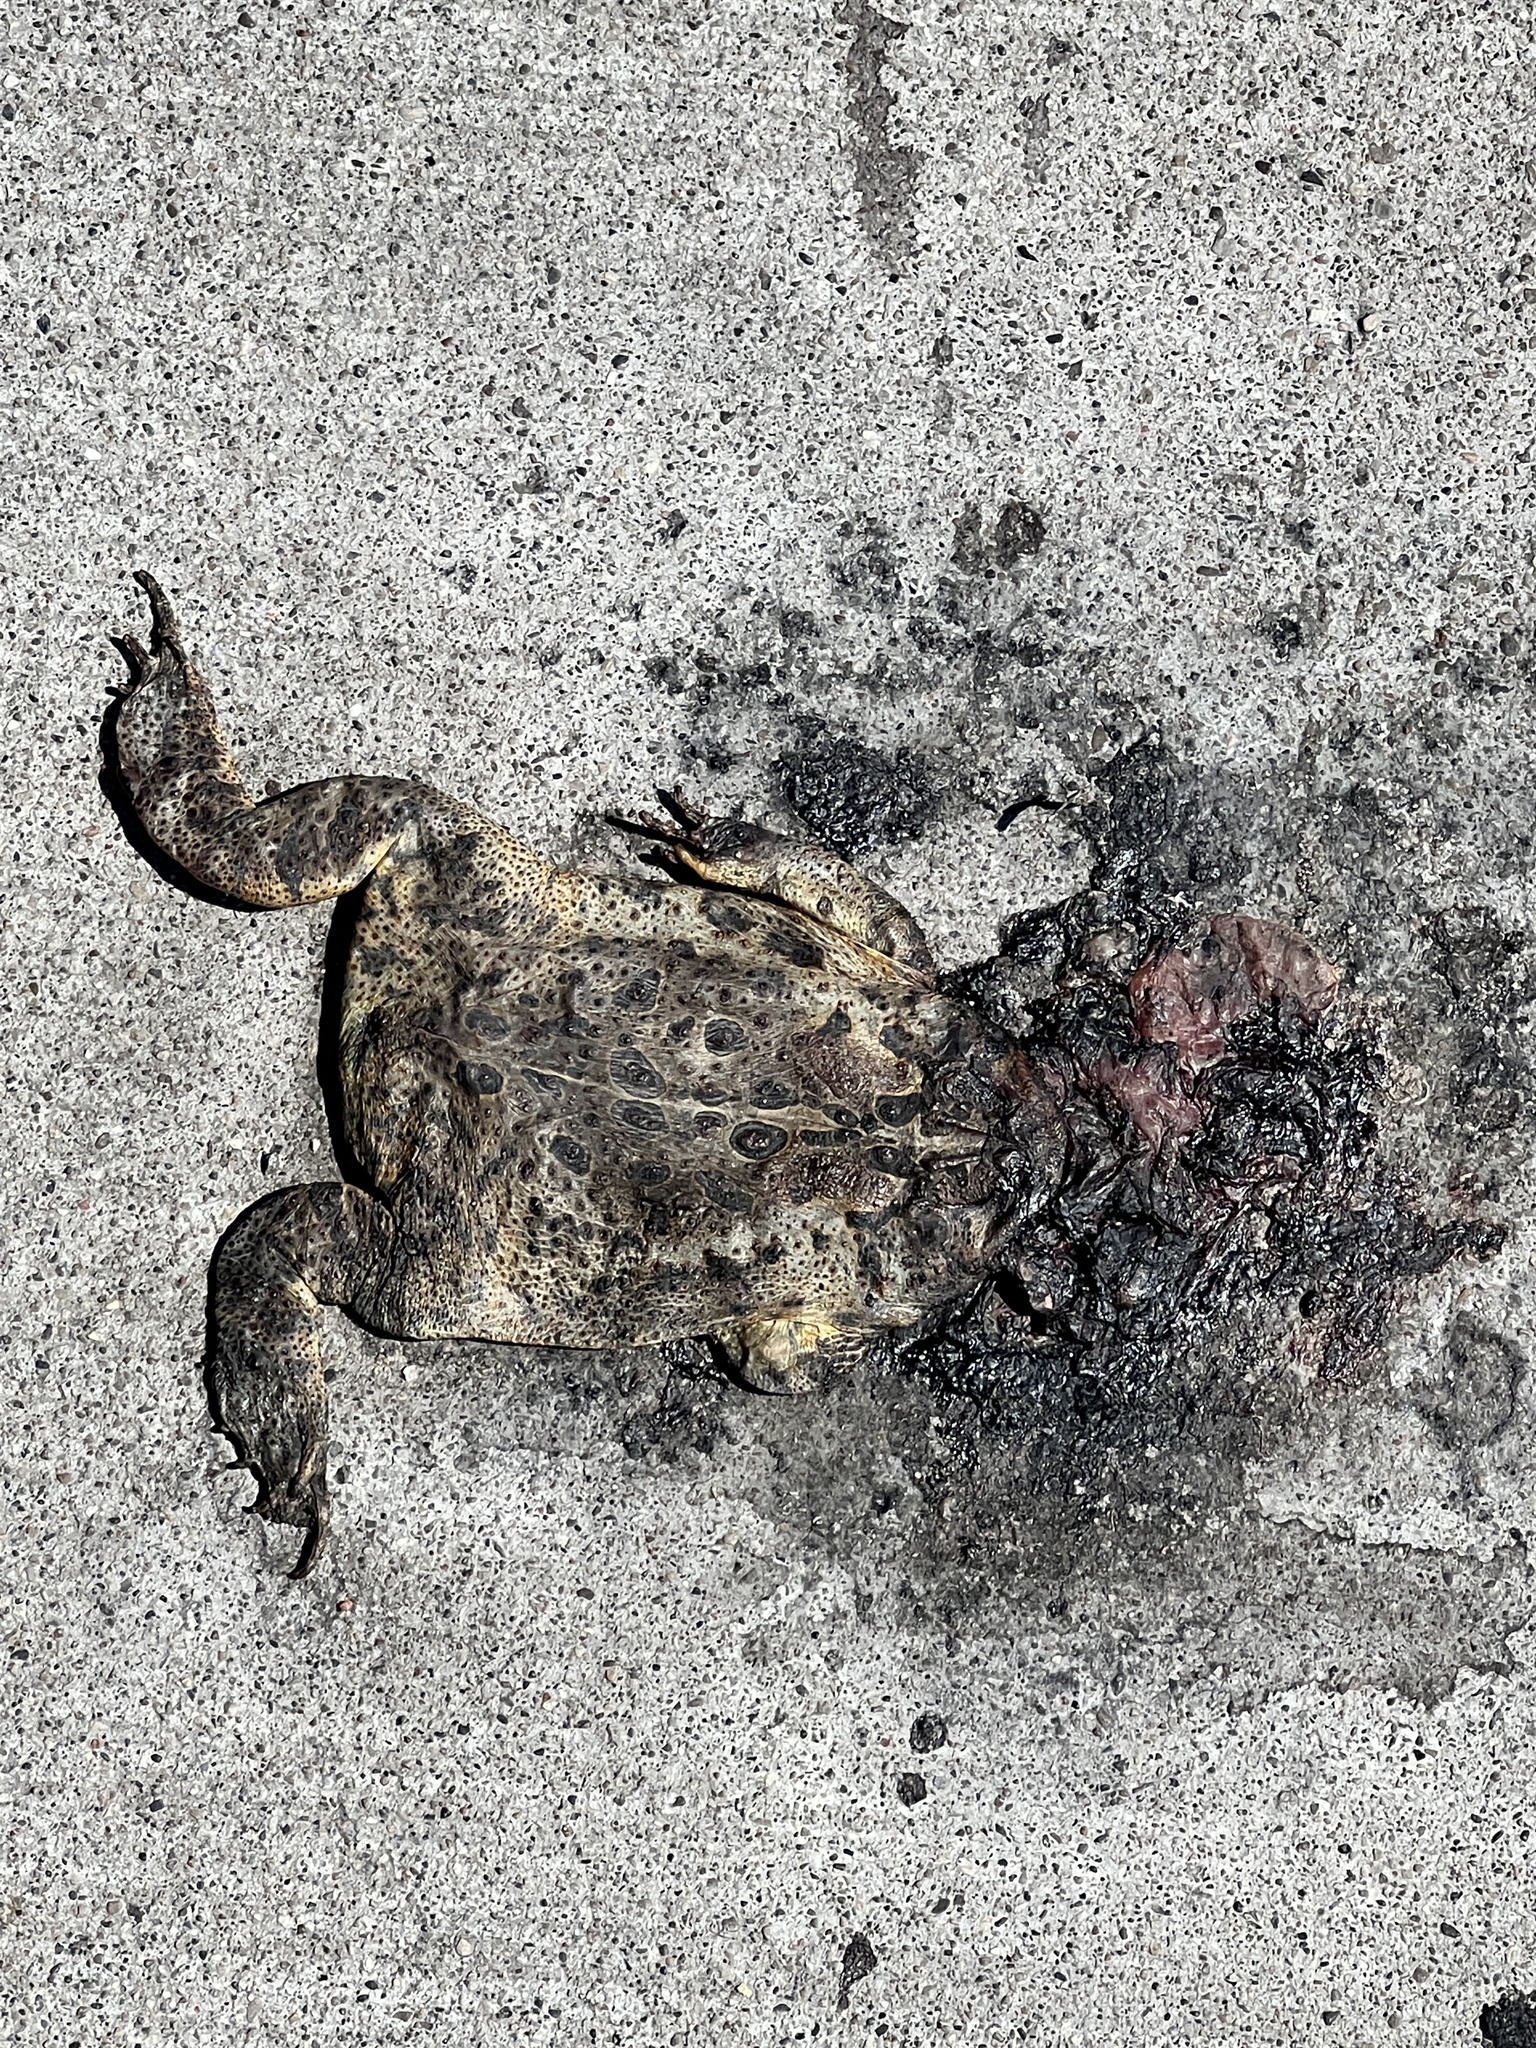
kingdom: Animalia
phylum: Chordata
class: Amphibia
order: Anura
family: Bufonidae
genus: Anaxyrus
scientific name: Anaxyrus americanus
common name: American toad
